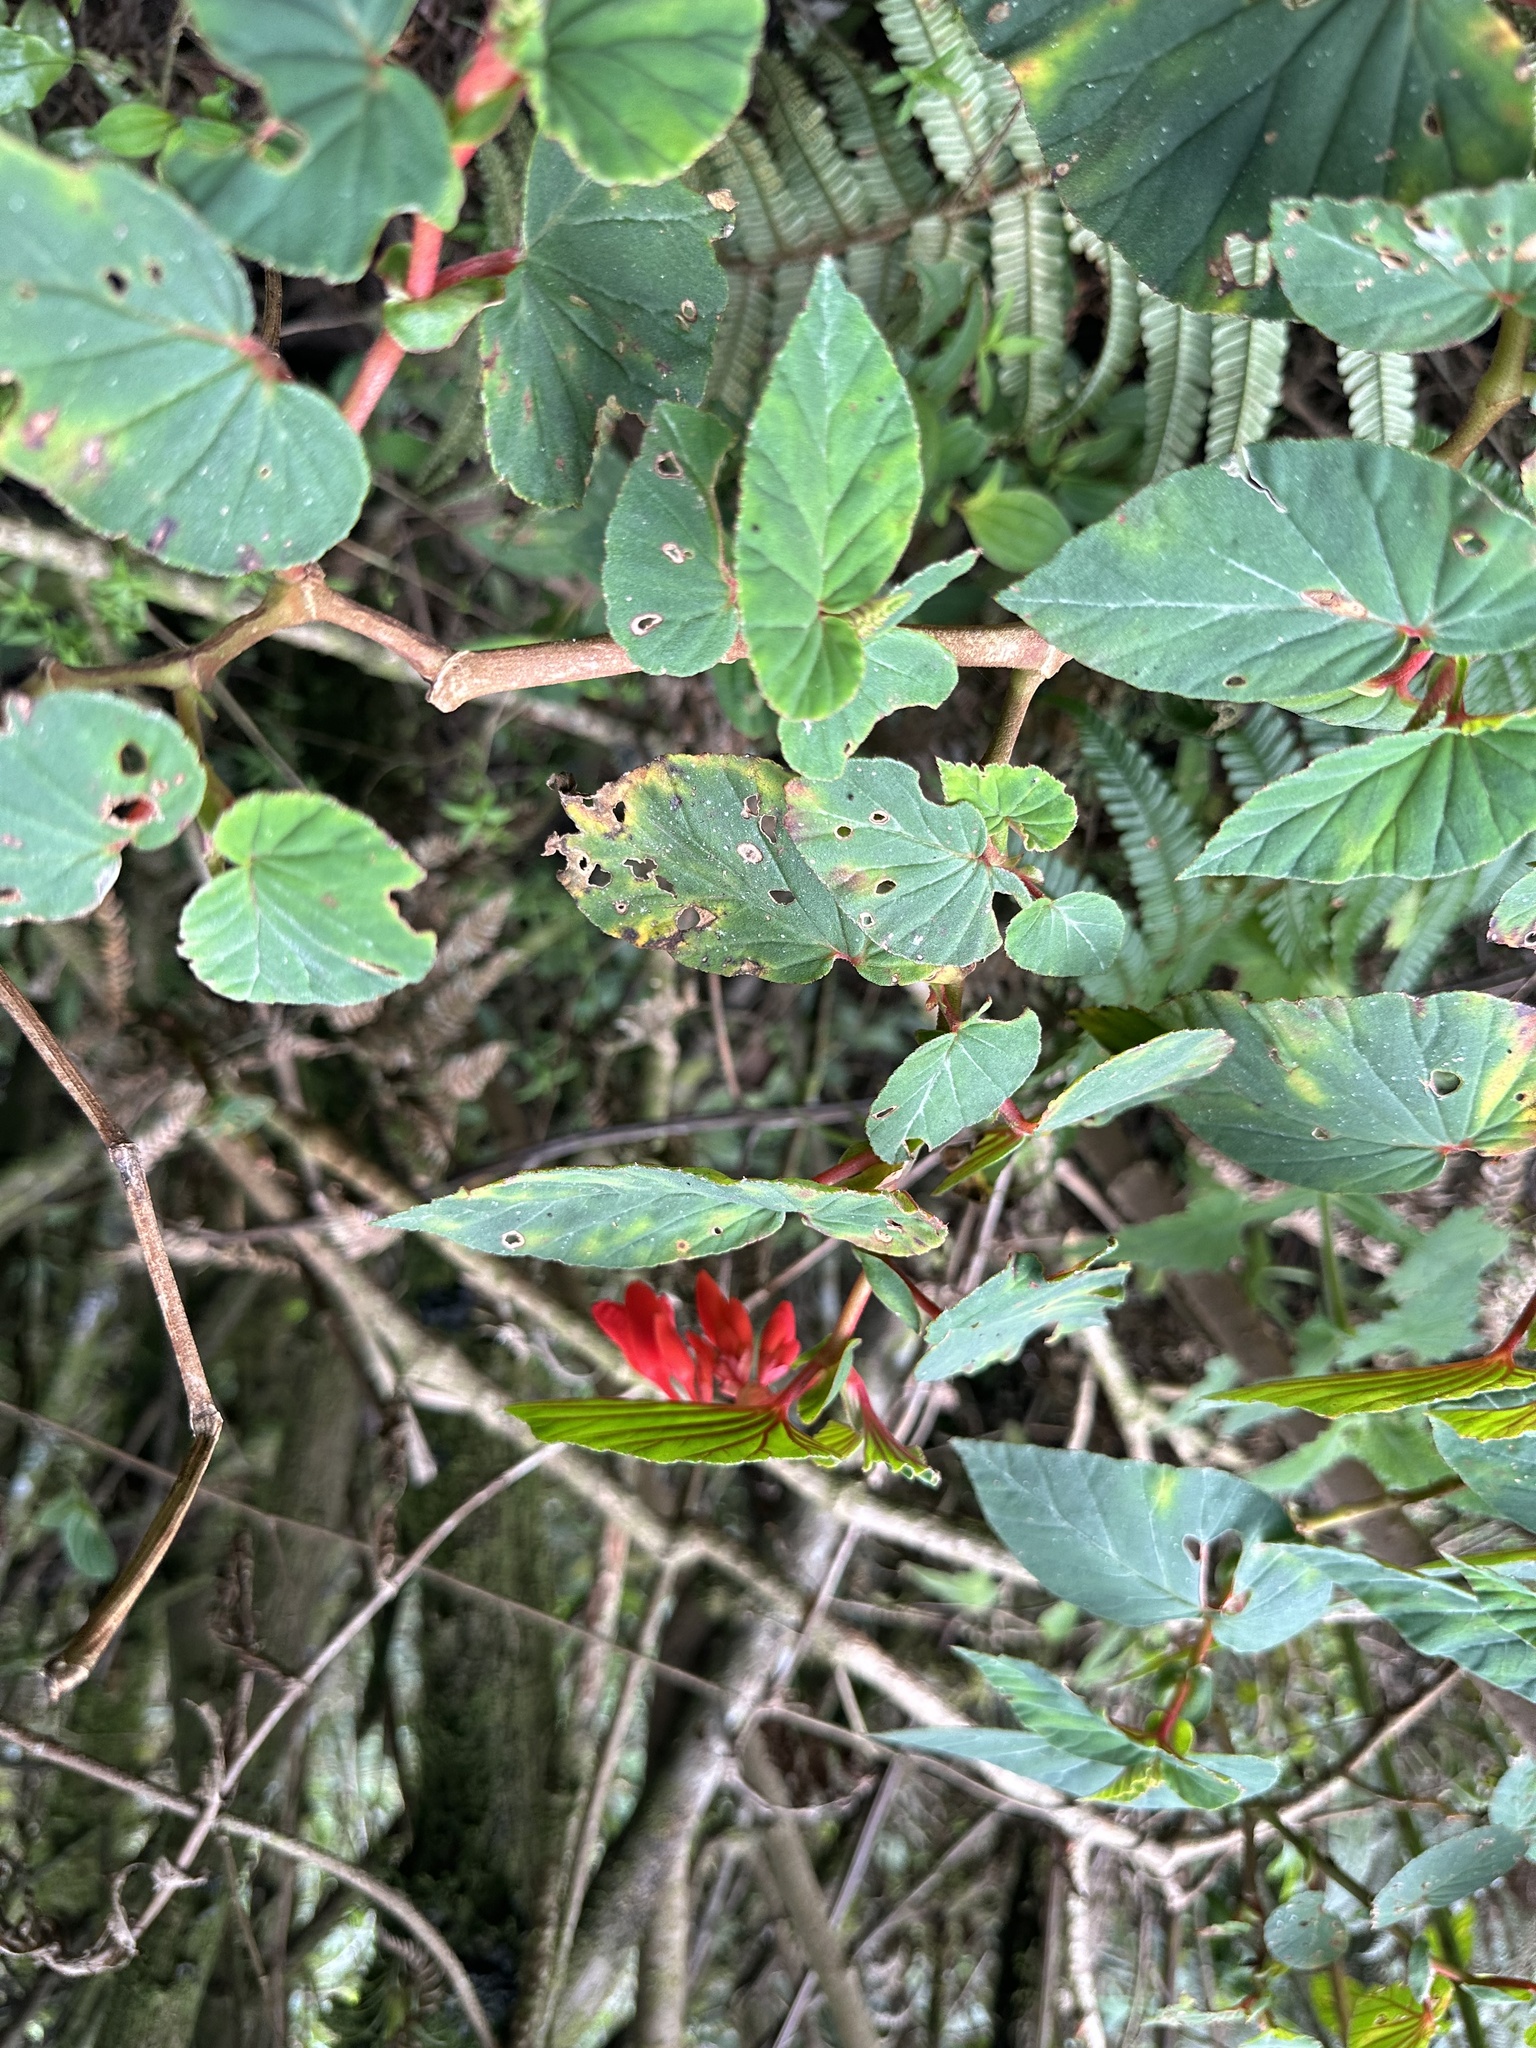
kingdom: Plantae
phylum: Tracheophyta
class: Magnoliopsida
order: Cucurbitales
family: Begoniaceae
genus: Begonia
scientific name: Begonia ferruginea
